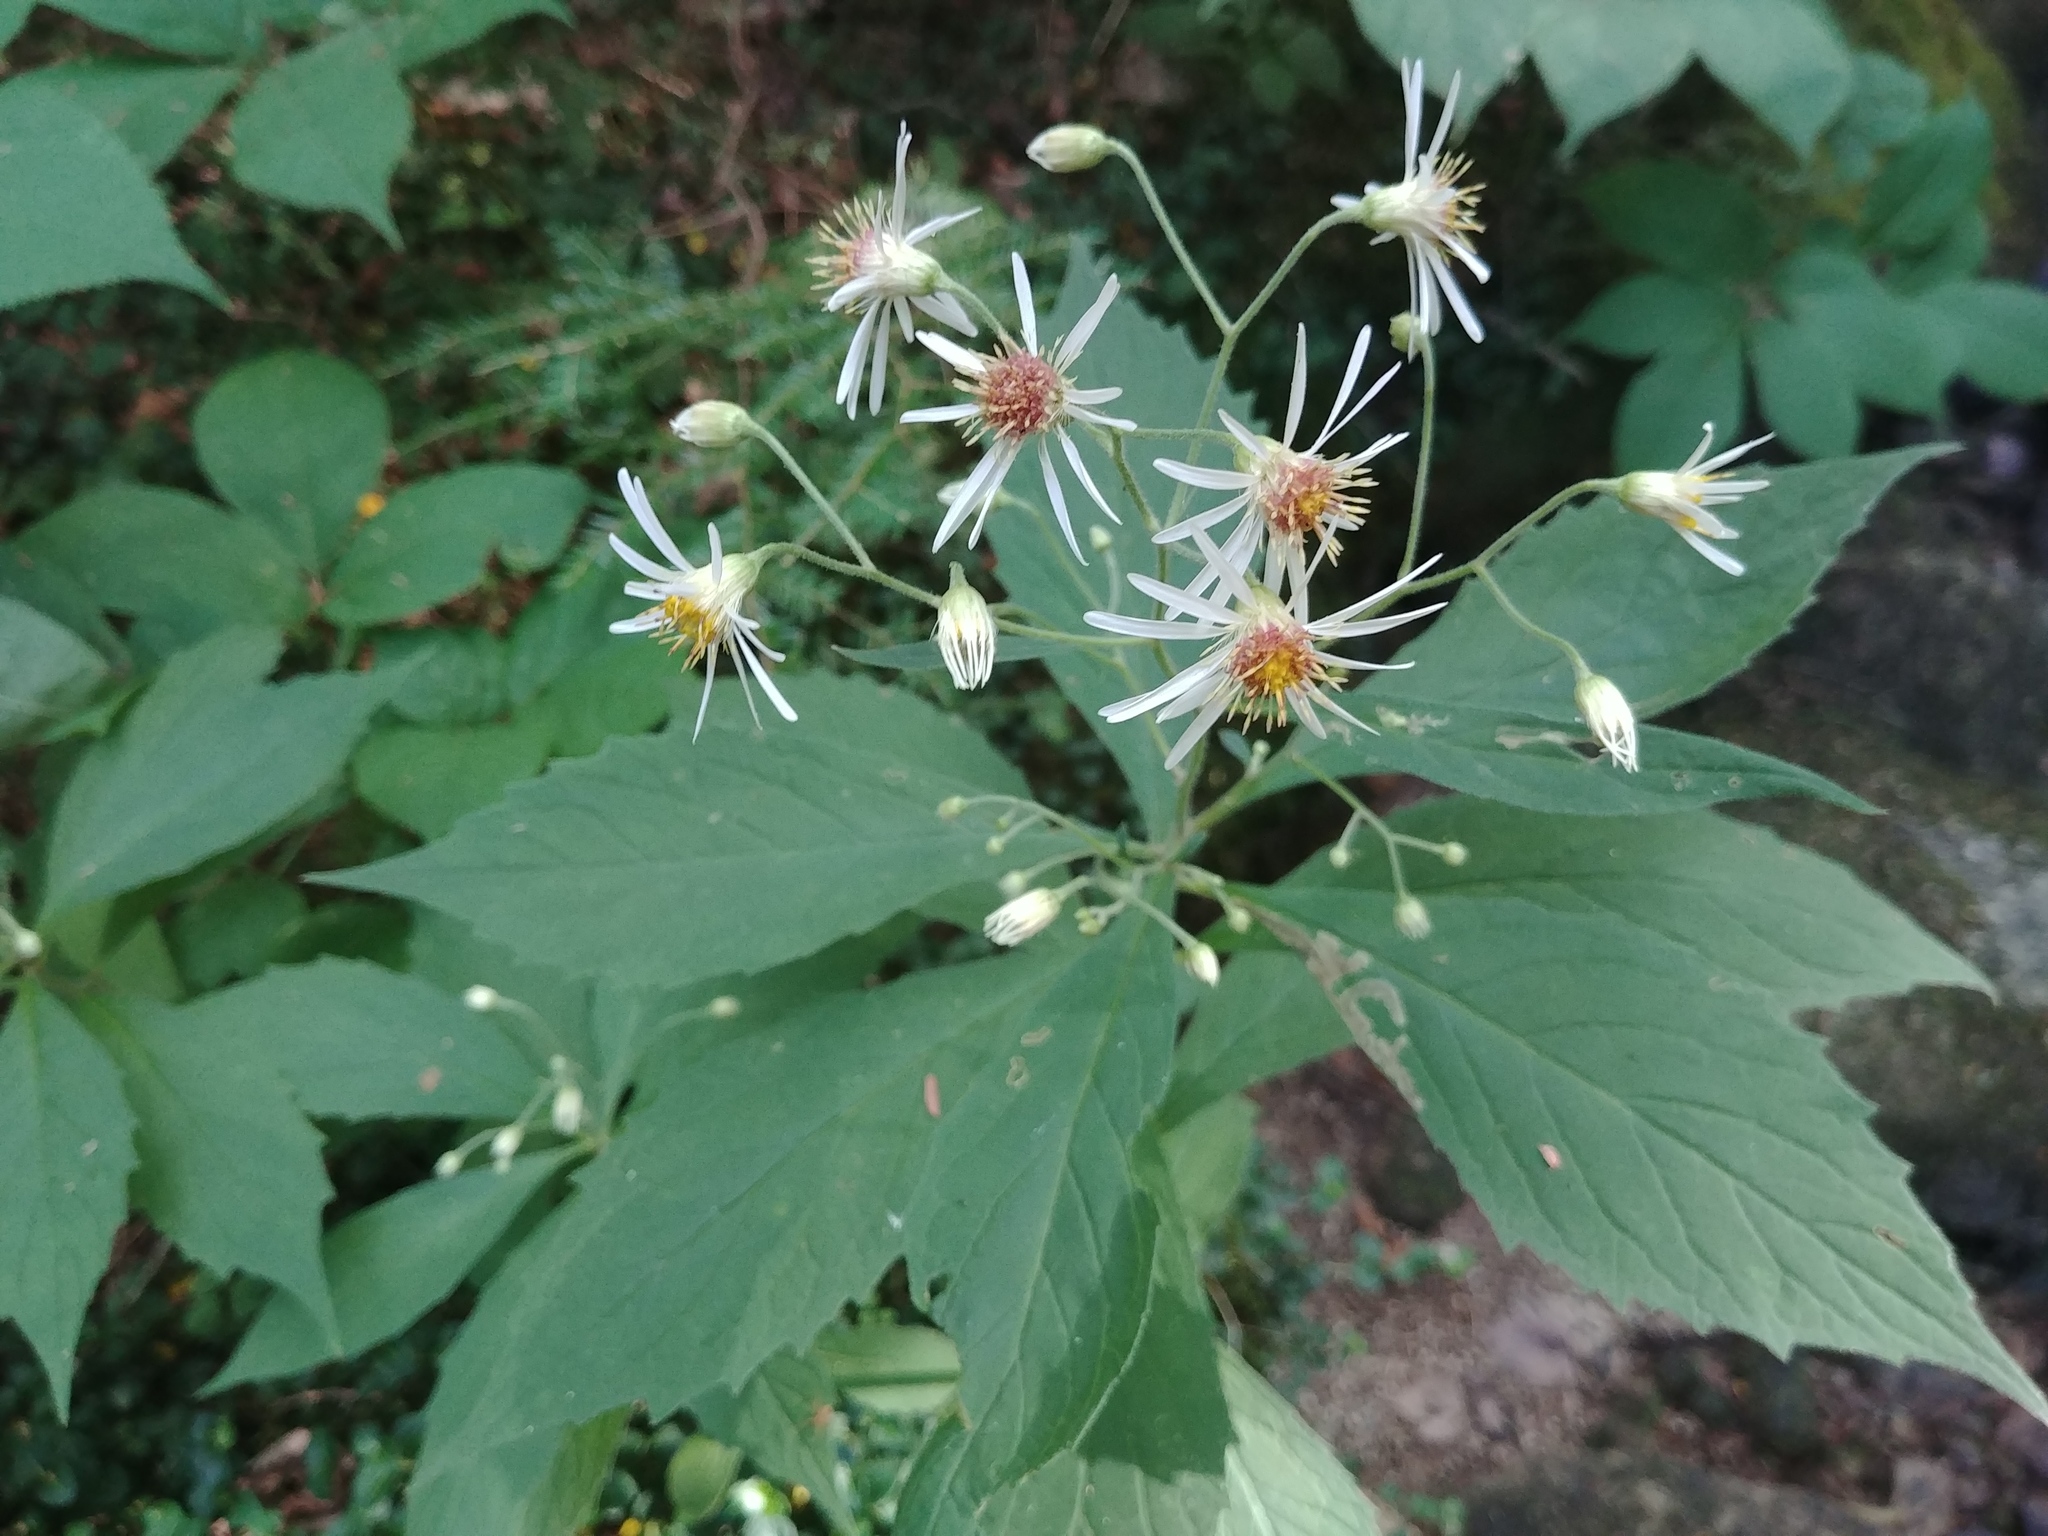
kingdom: Plantae
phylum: Tracheophyta
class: Magnoliopsida
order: Asterales
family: Asteraceae
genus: Oclemena
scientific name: Oclemena acuminata
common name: Mountain aster
